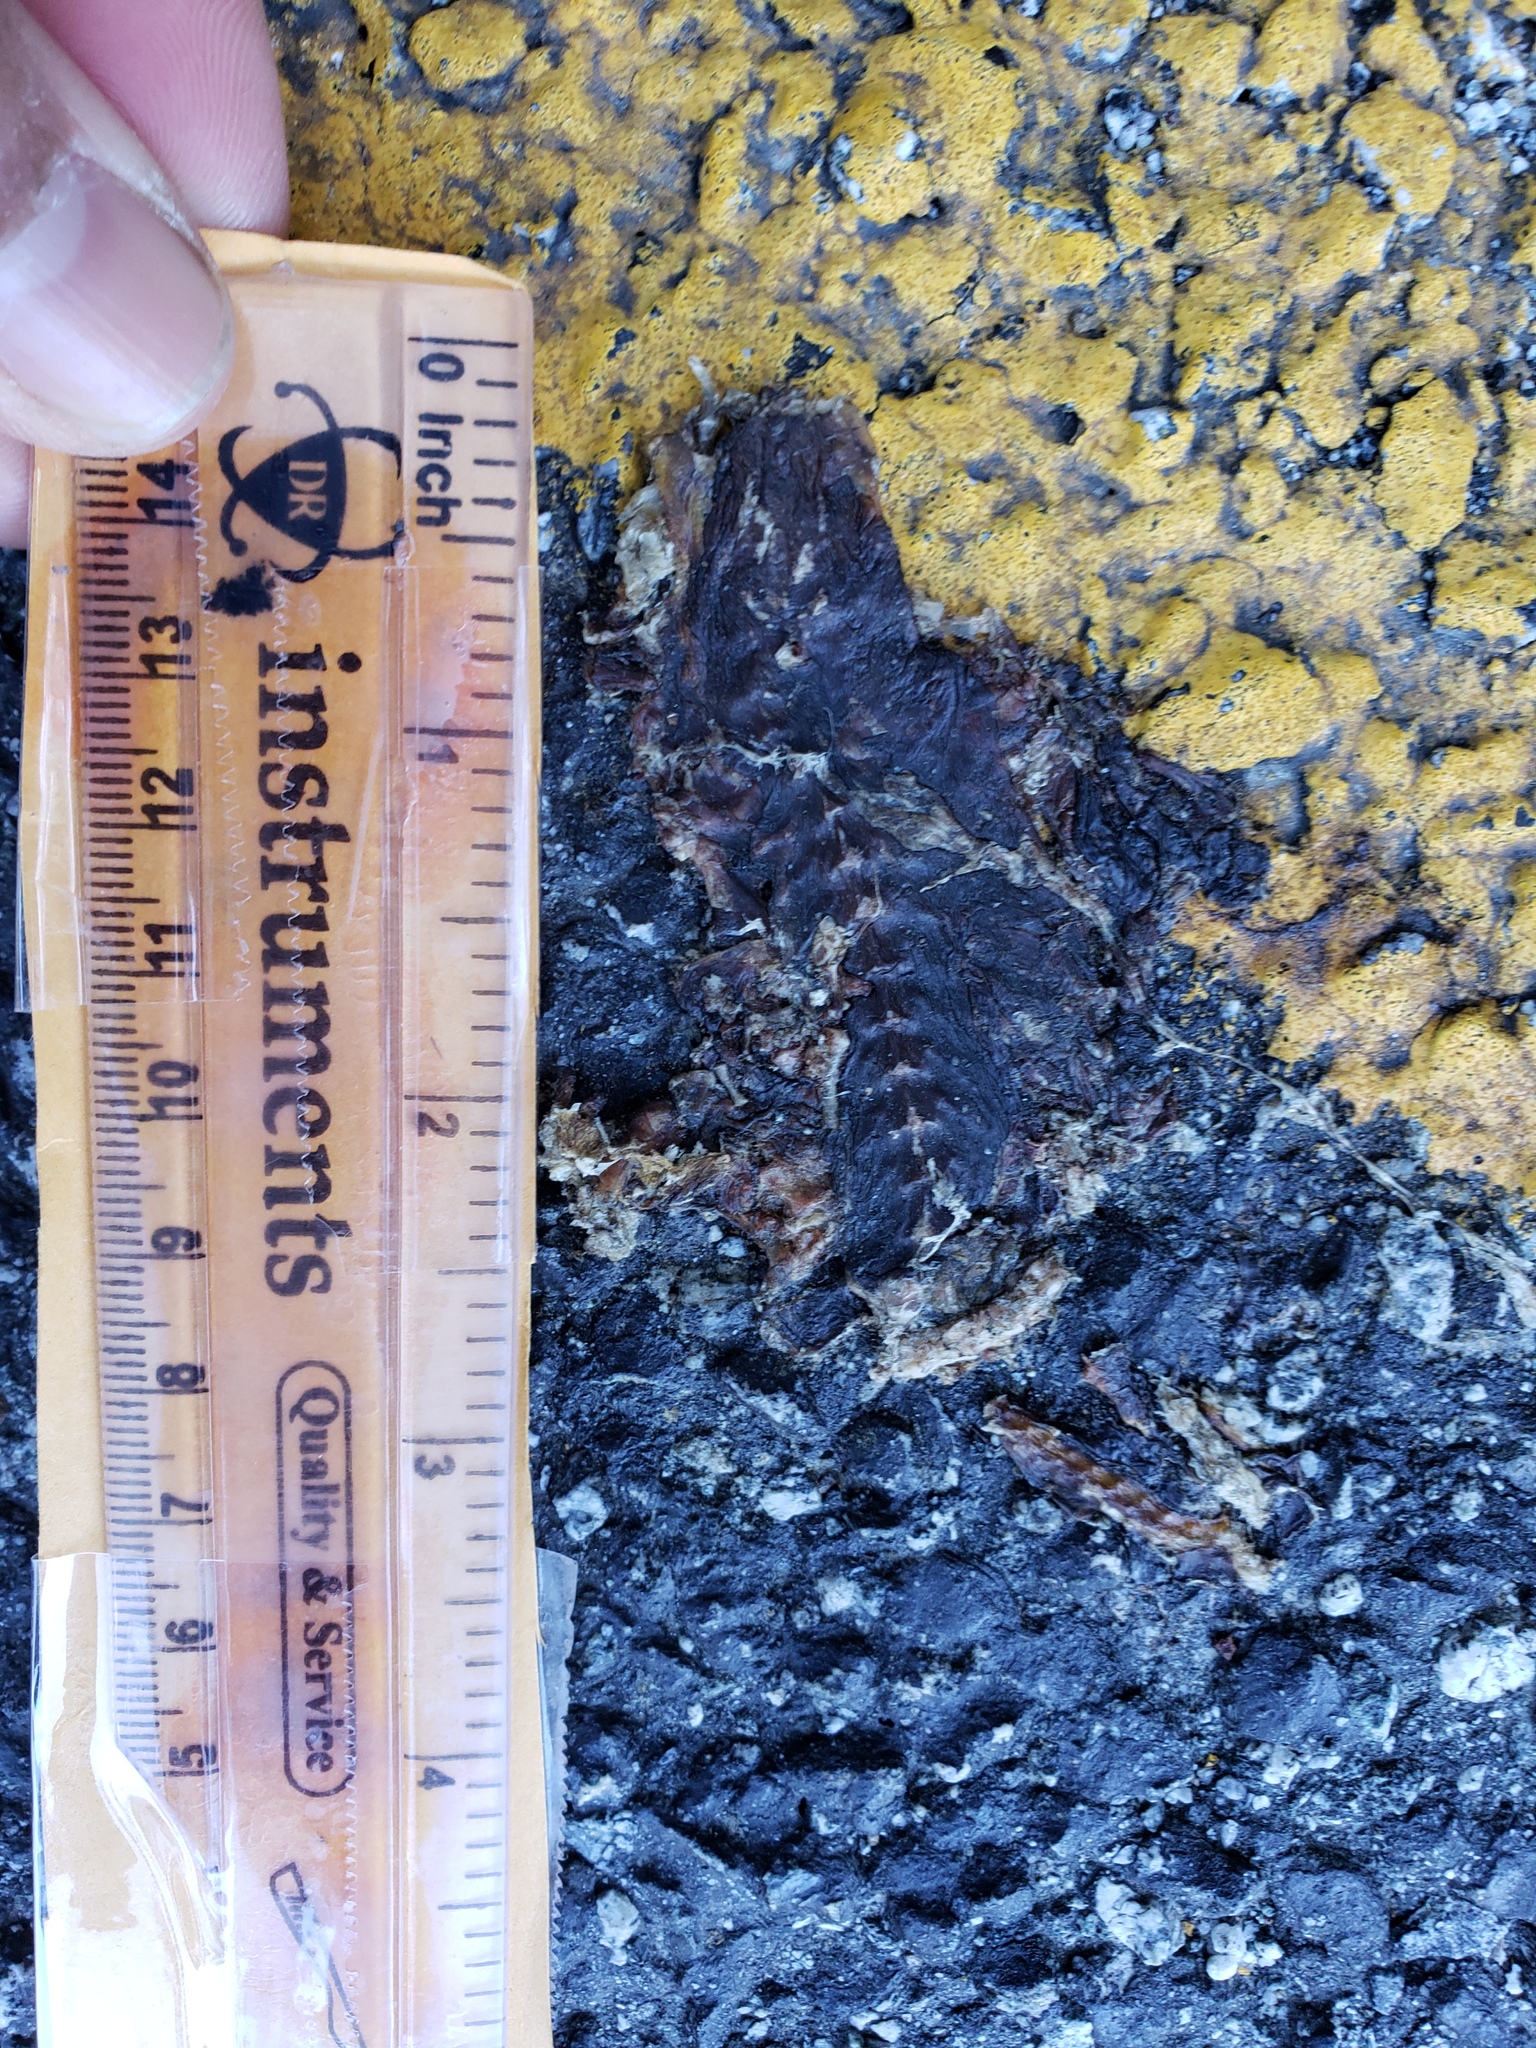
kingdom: Animalia
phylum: Chordata
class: Amphibia
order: Caudata
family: Salamandridae
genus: Taricha
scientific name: Taricha
